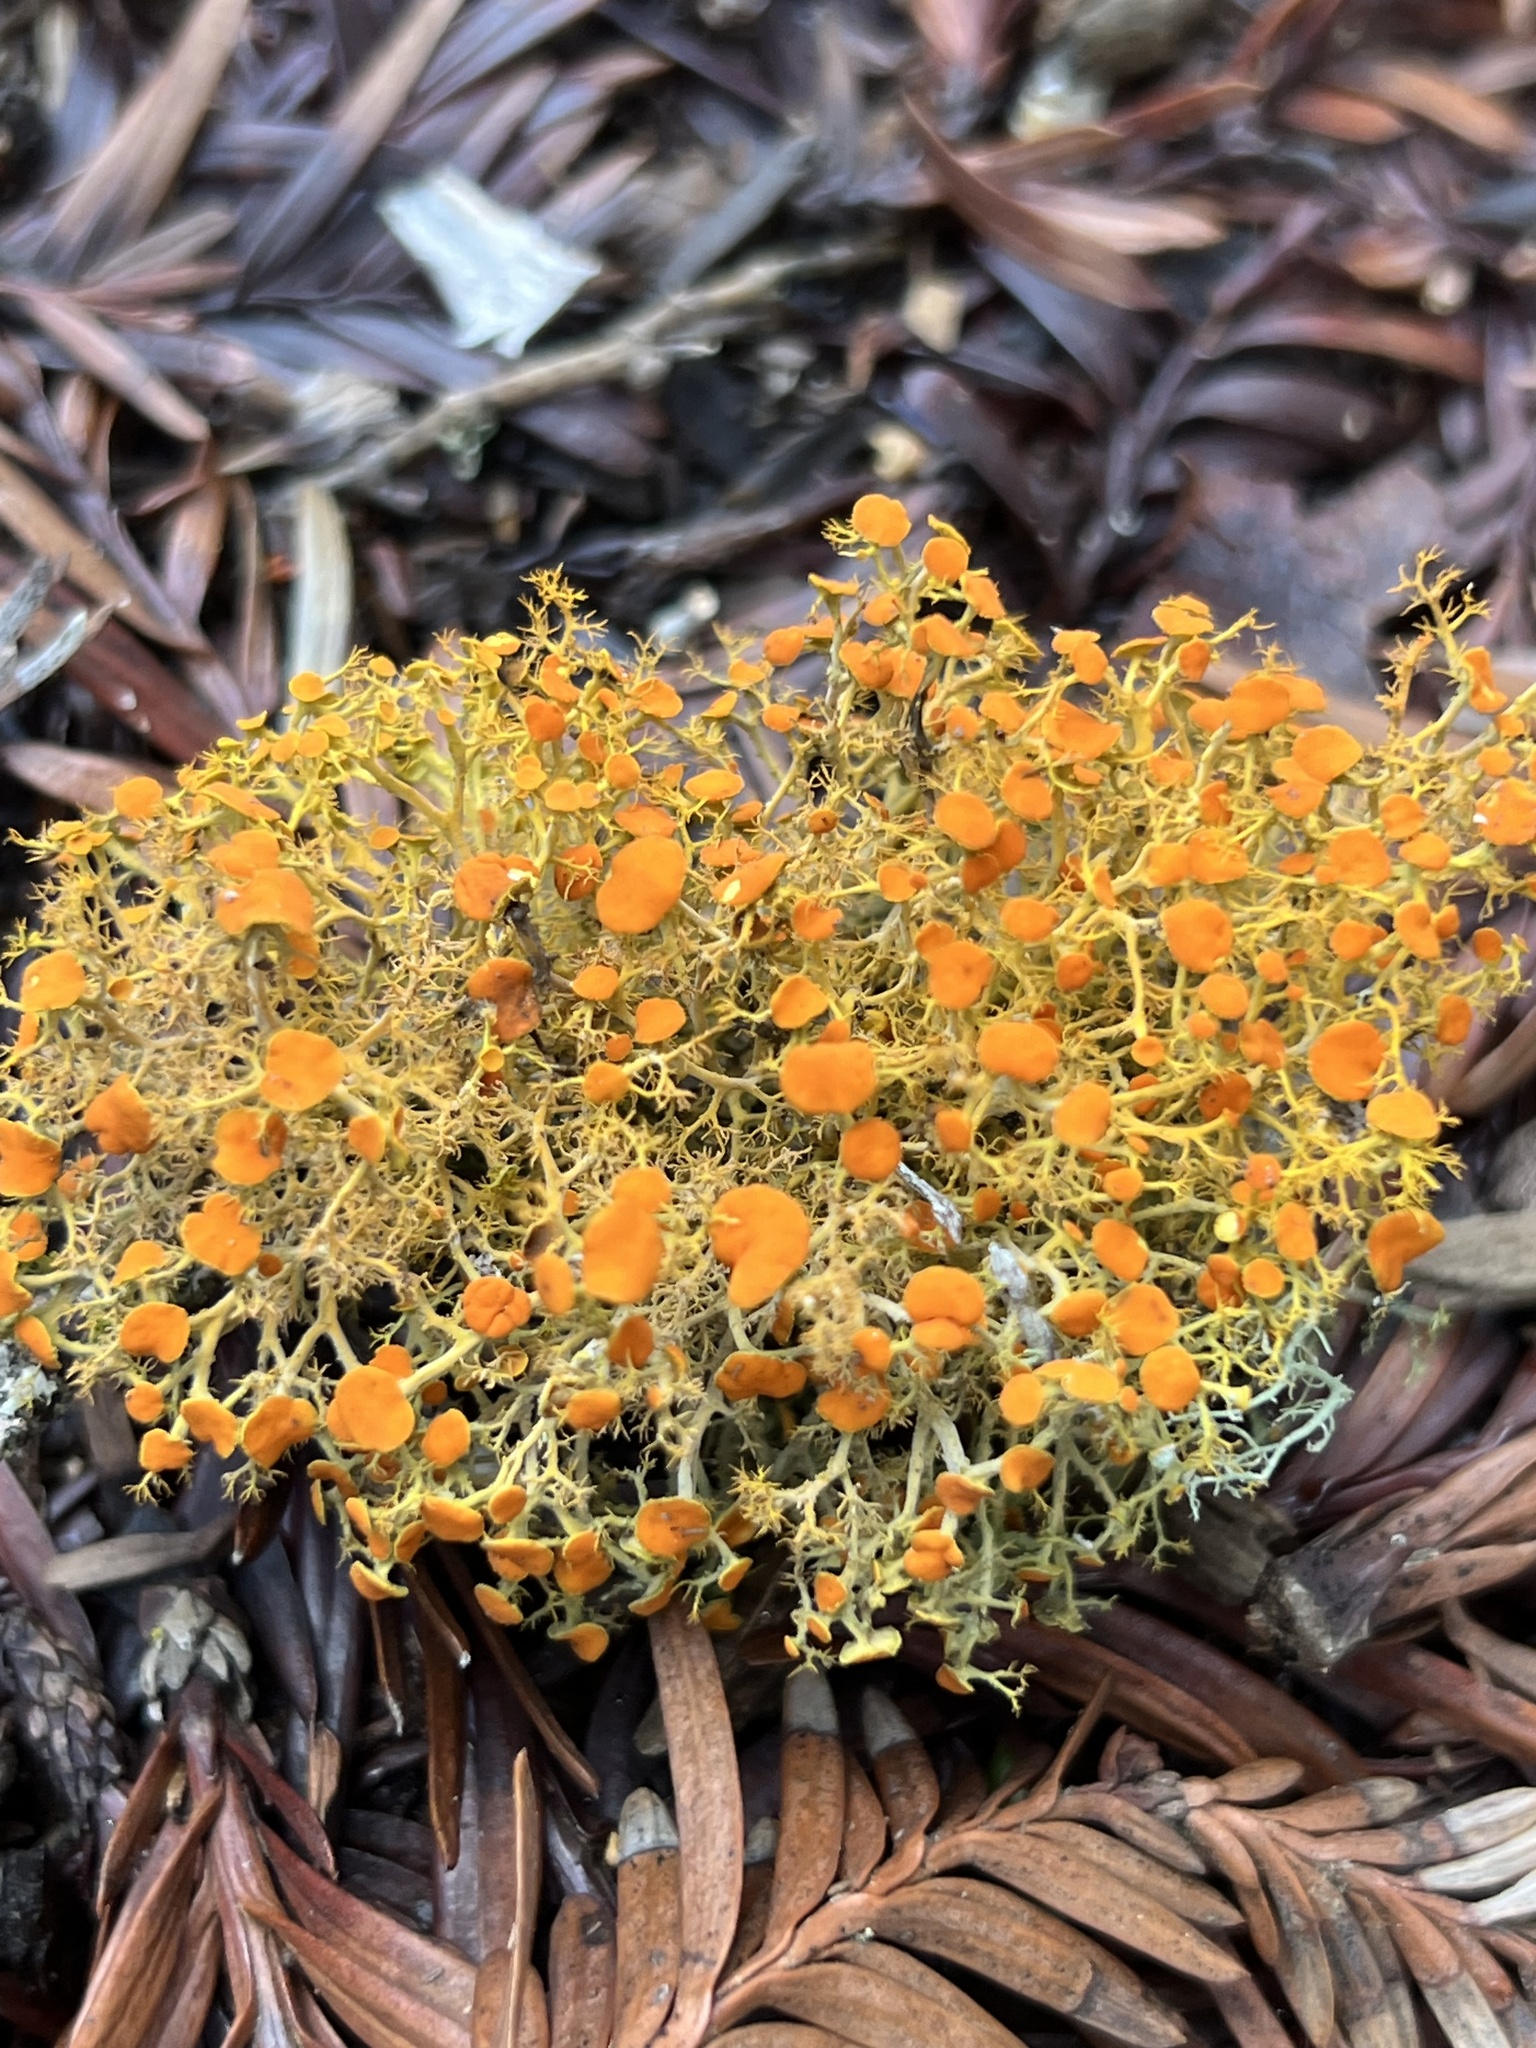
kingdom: Fungi
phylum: Ascomycota
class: Lecanoromycetes
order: Teloschistales
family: Teloschistaceae
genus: Teloschistes
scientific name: Teloschistes flavicans
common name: Golden hair-lichen
